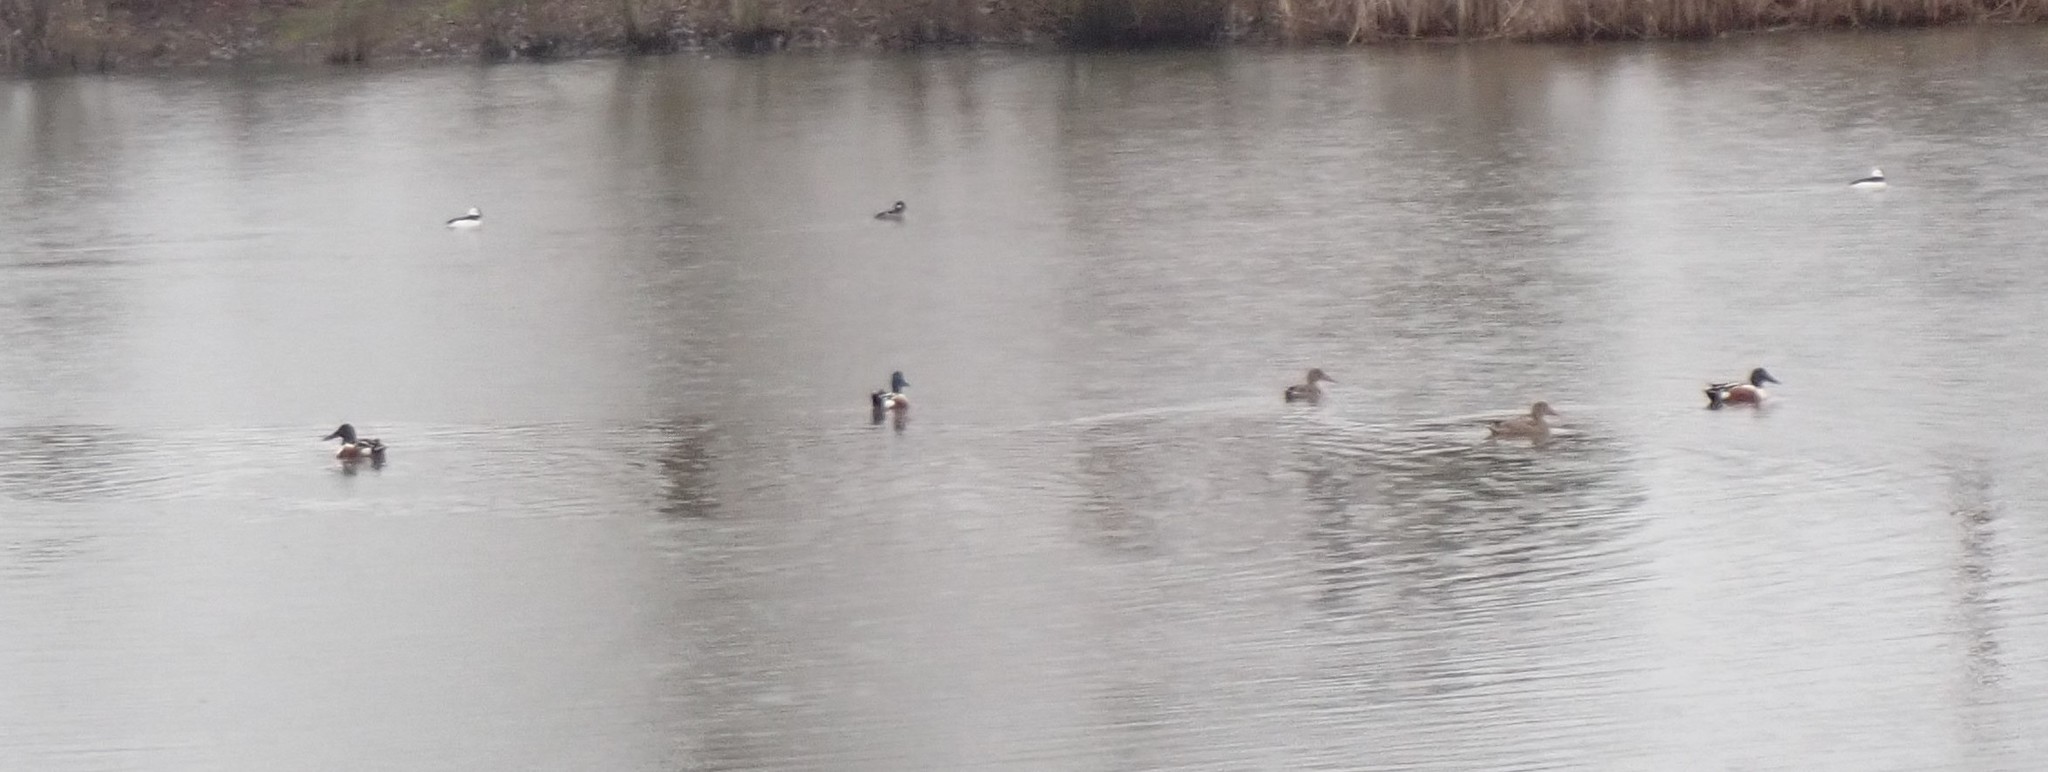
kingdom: Animalia
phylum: Chordata
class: Aves
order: Anseriformes
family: Anatidae
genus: Spatula
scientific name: Spatula clypeata
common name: Northern shoveler
